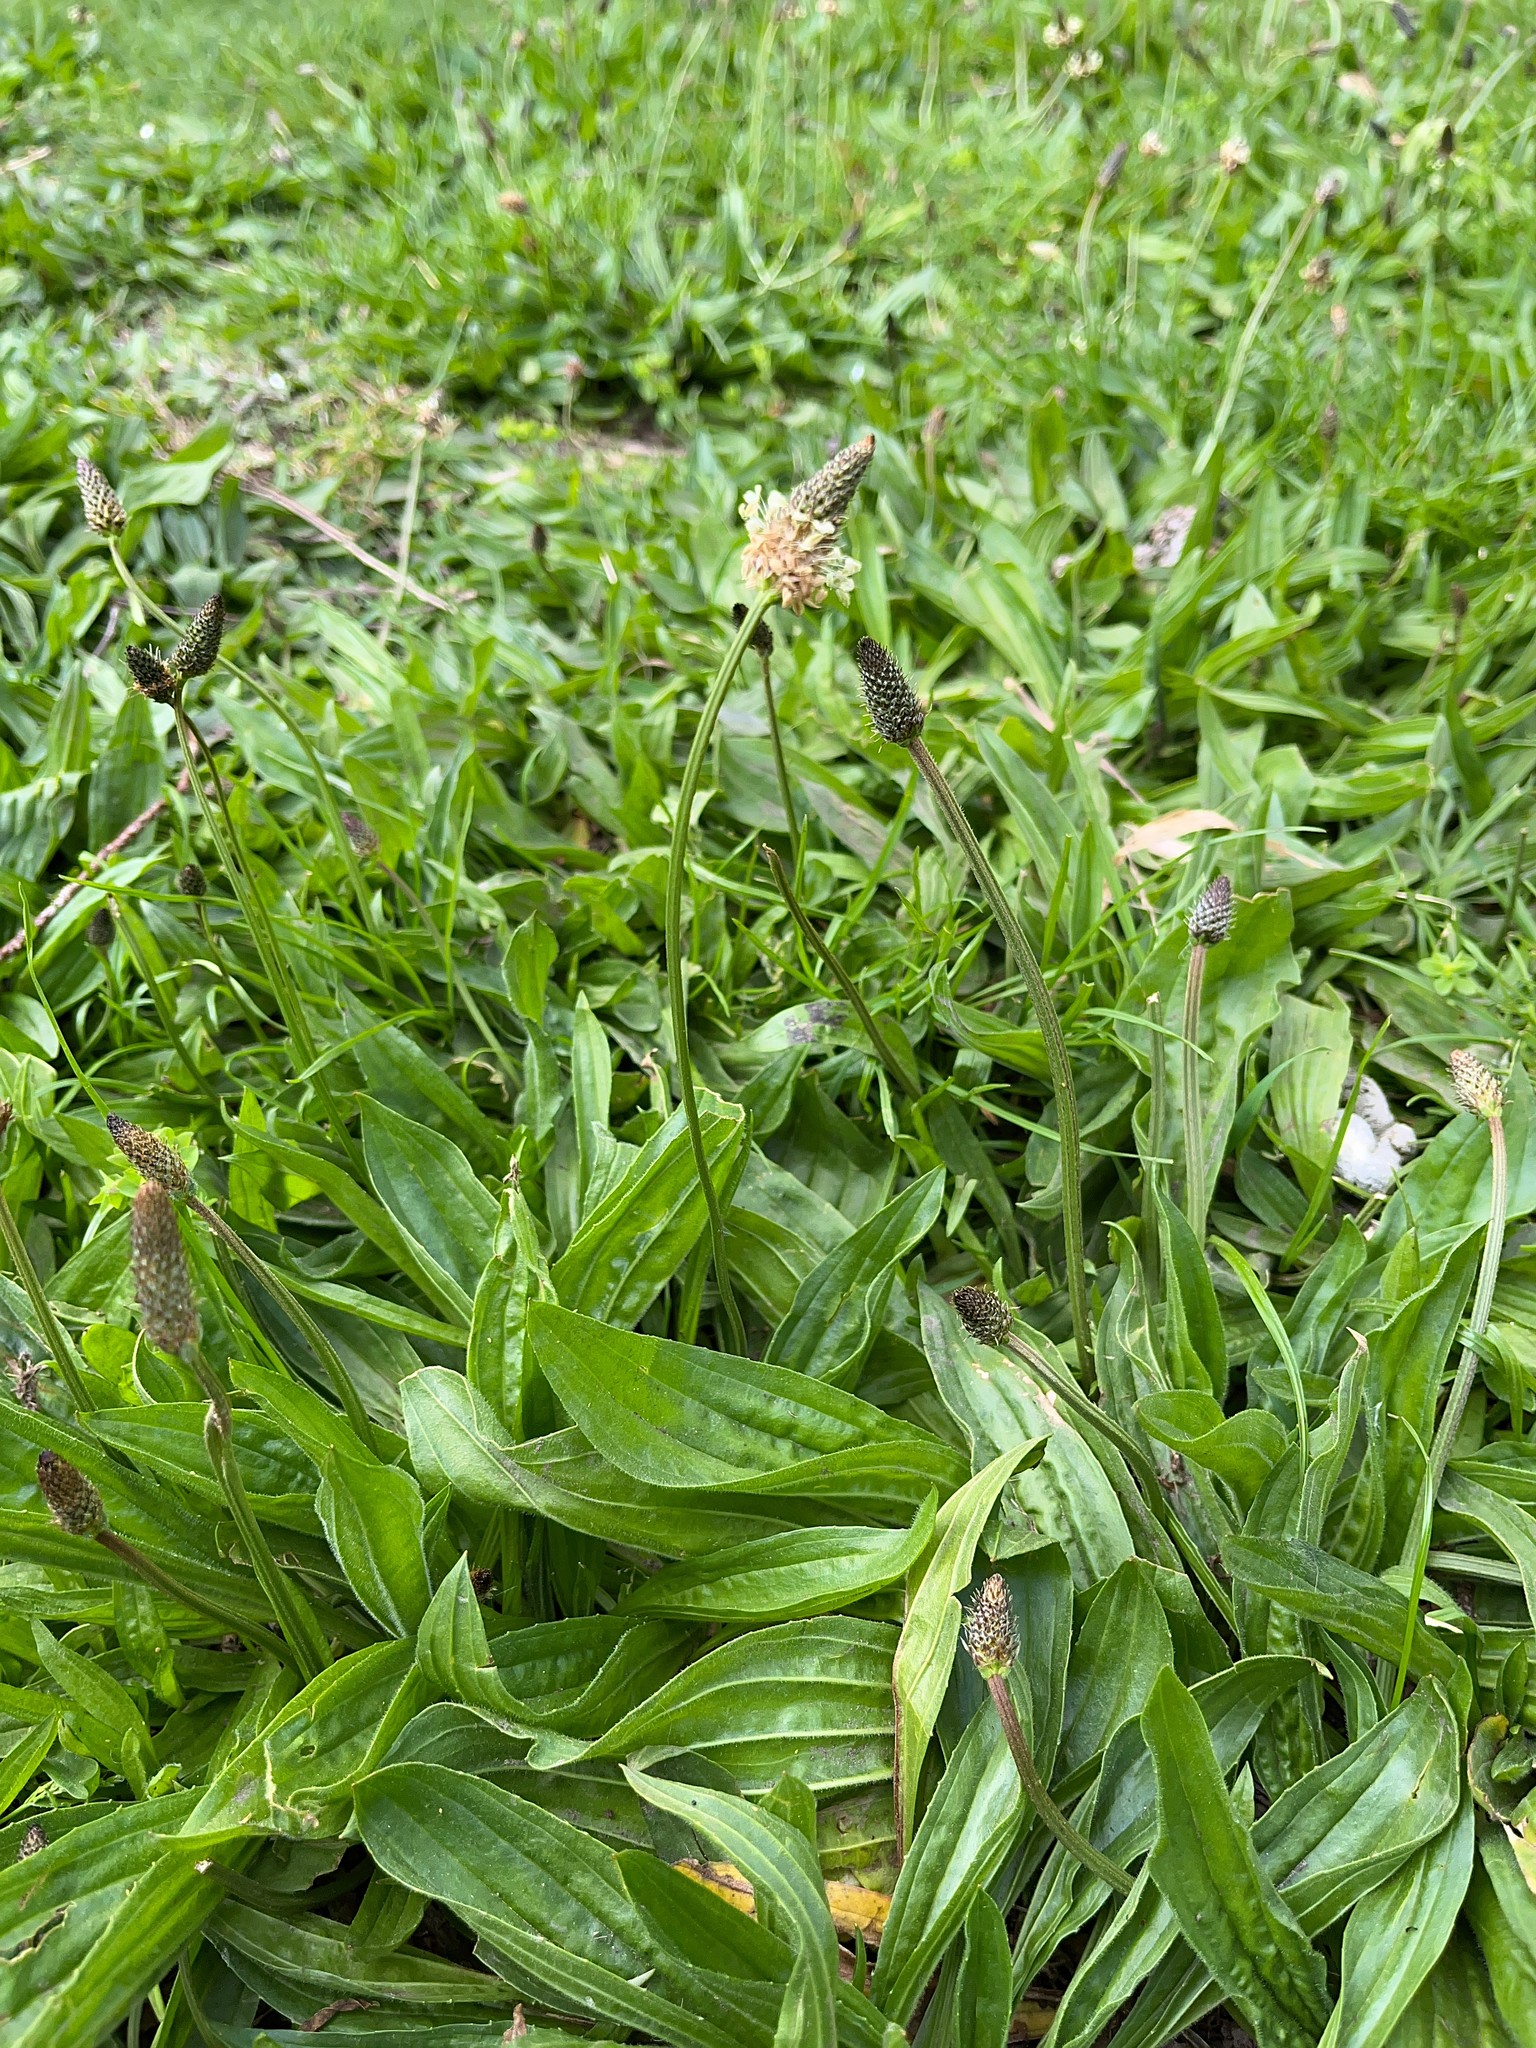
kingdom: Plantae
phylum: Tracheophyta
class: Magnoliopsida
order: Lamiales
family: Plantaginaceae
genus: Plantago
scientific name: Plantago lanceolata
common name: Ribwort plantain
